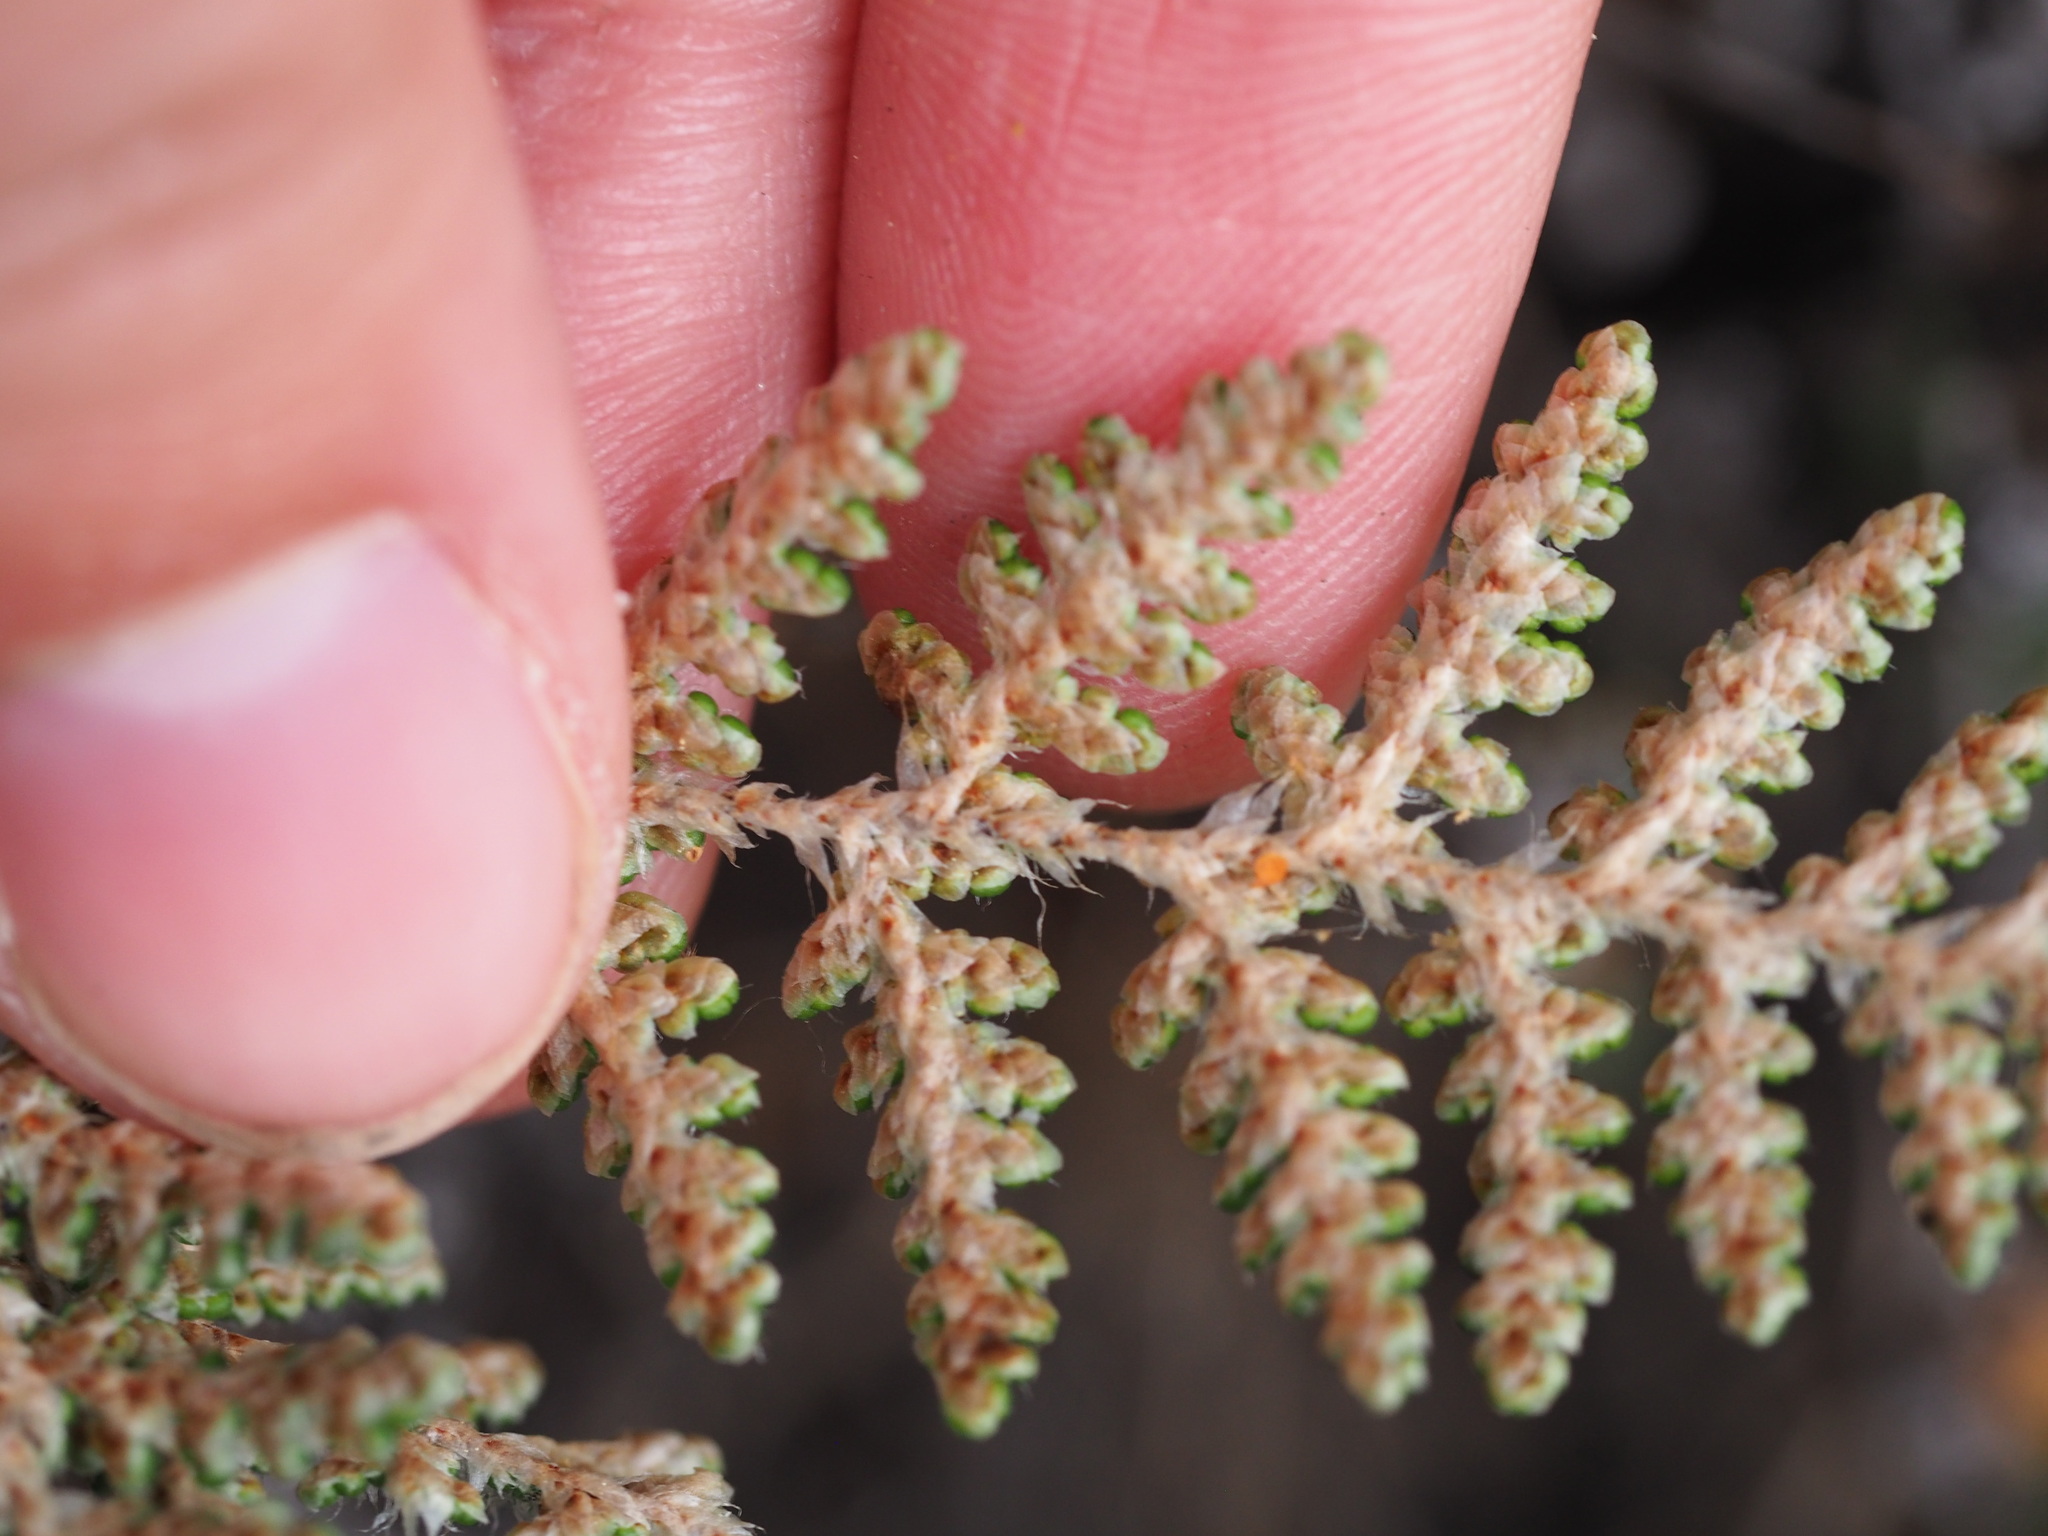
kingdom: Plantae
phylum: Tracheophyta
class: Polypodiopsida
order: Polypodiales
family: Pteridaceae
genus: Myriopteris
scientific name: Myriopteris covillei
